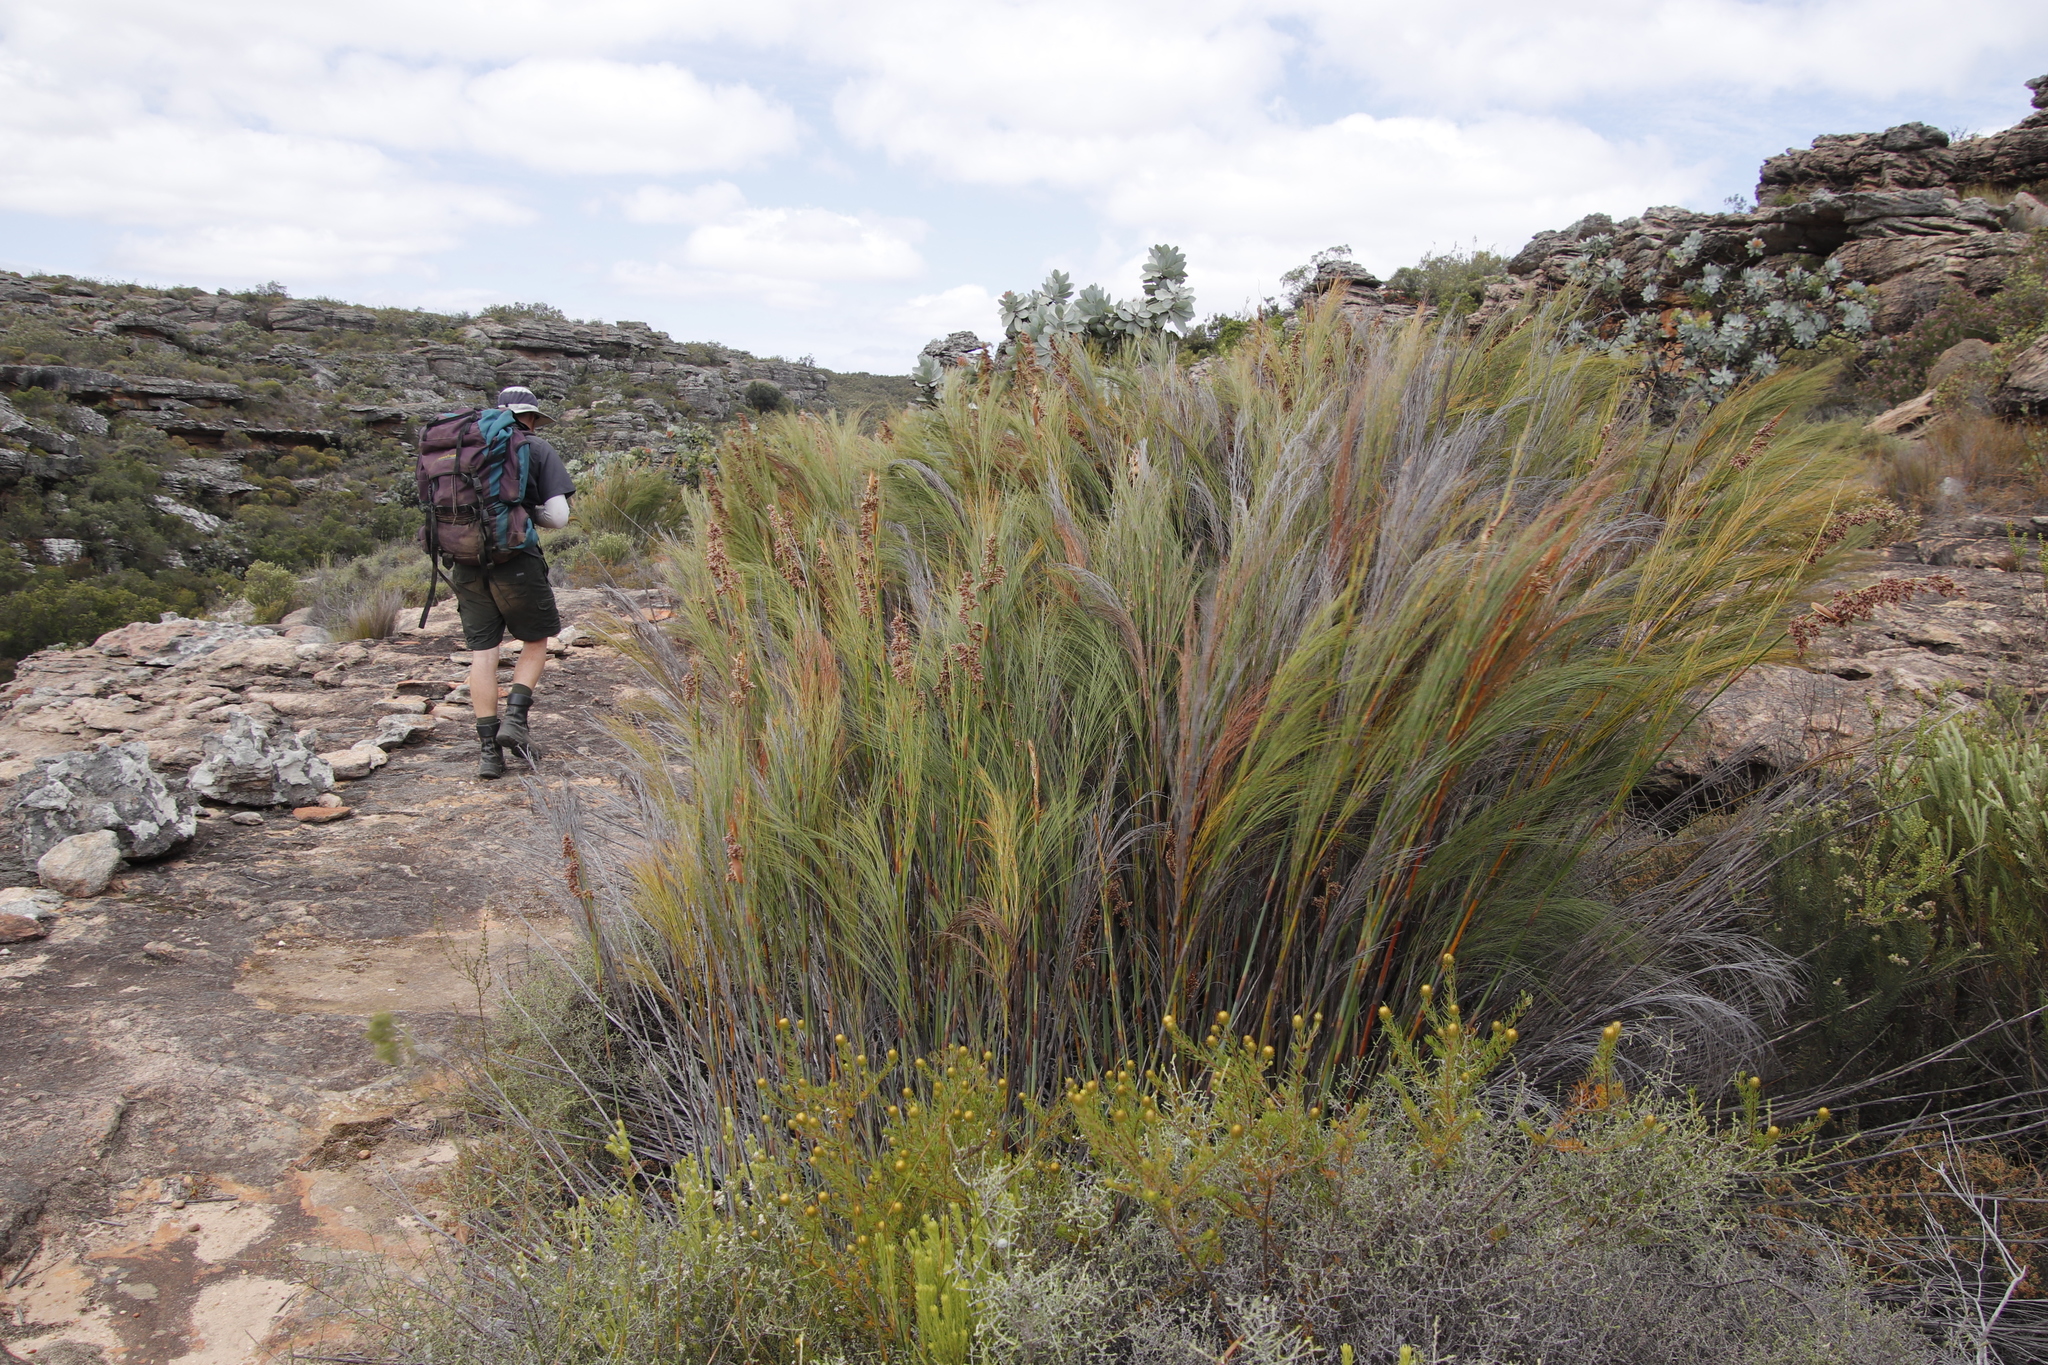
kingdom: Plantae
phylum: Tracheophyta
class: Liliopsida
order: Poales
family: Restionaceae
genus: Cannomois
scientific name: Cannomois robusta
